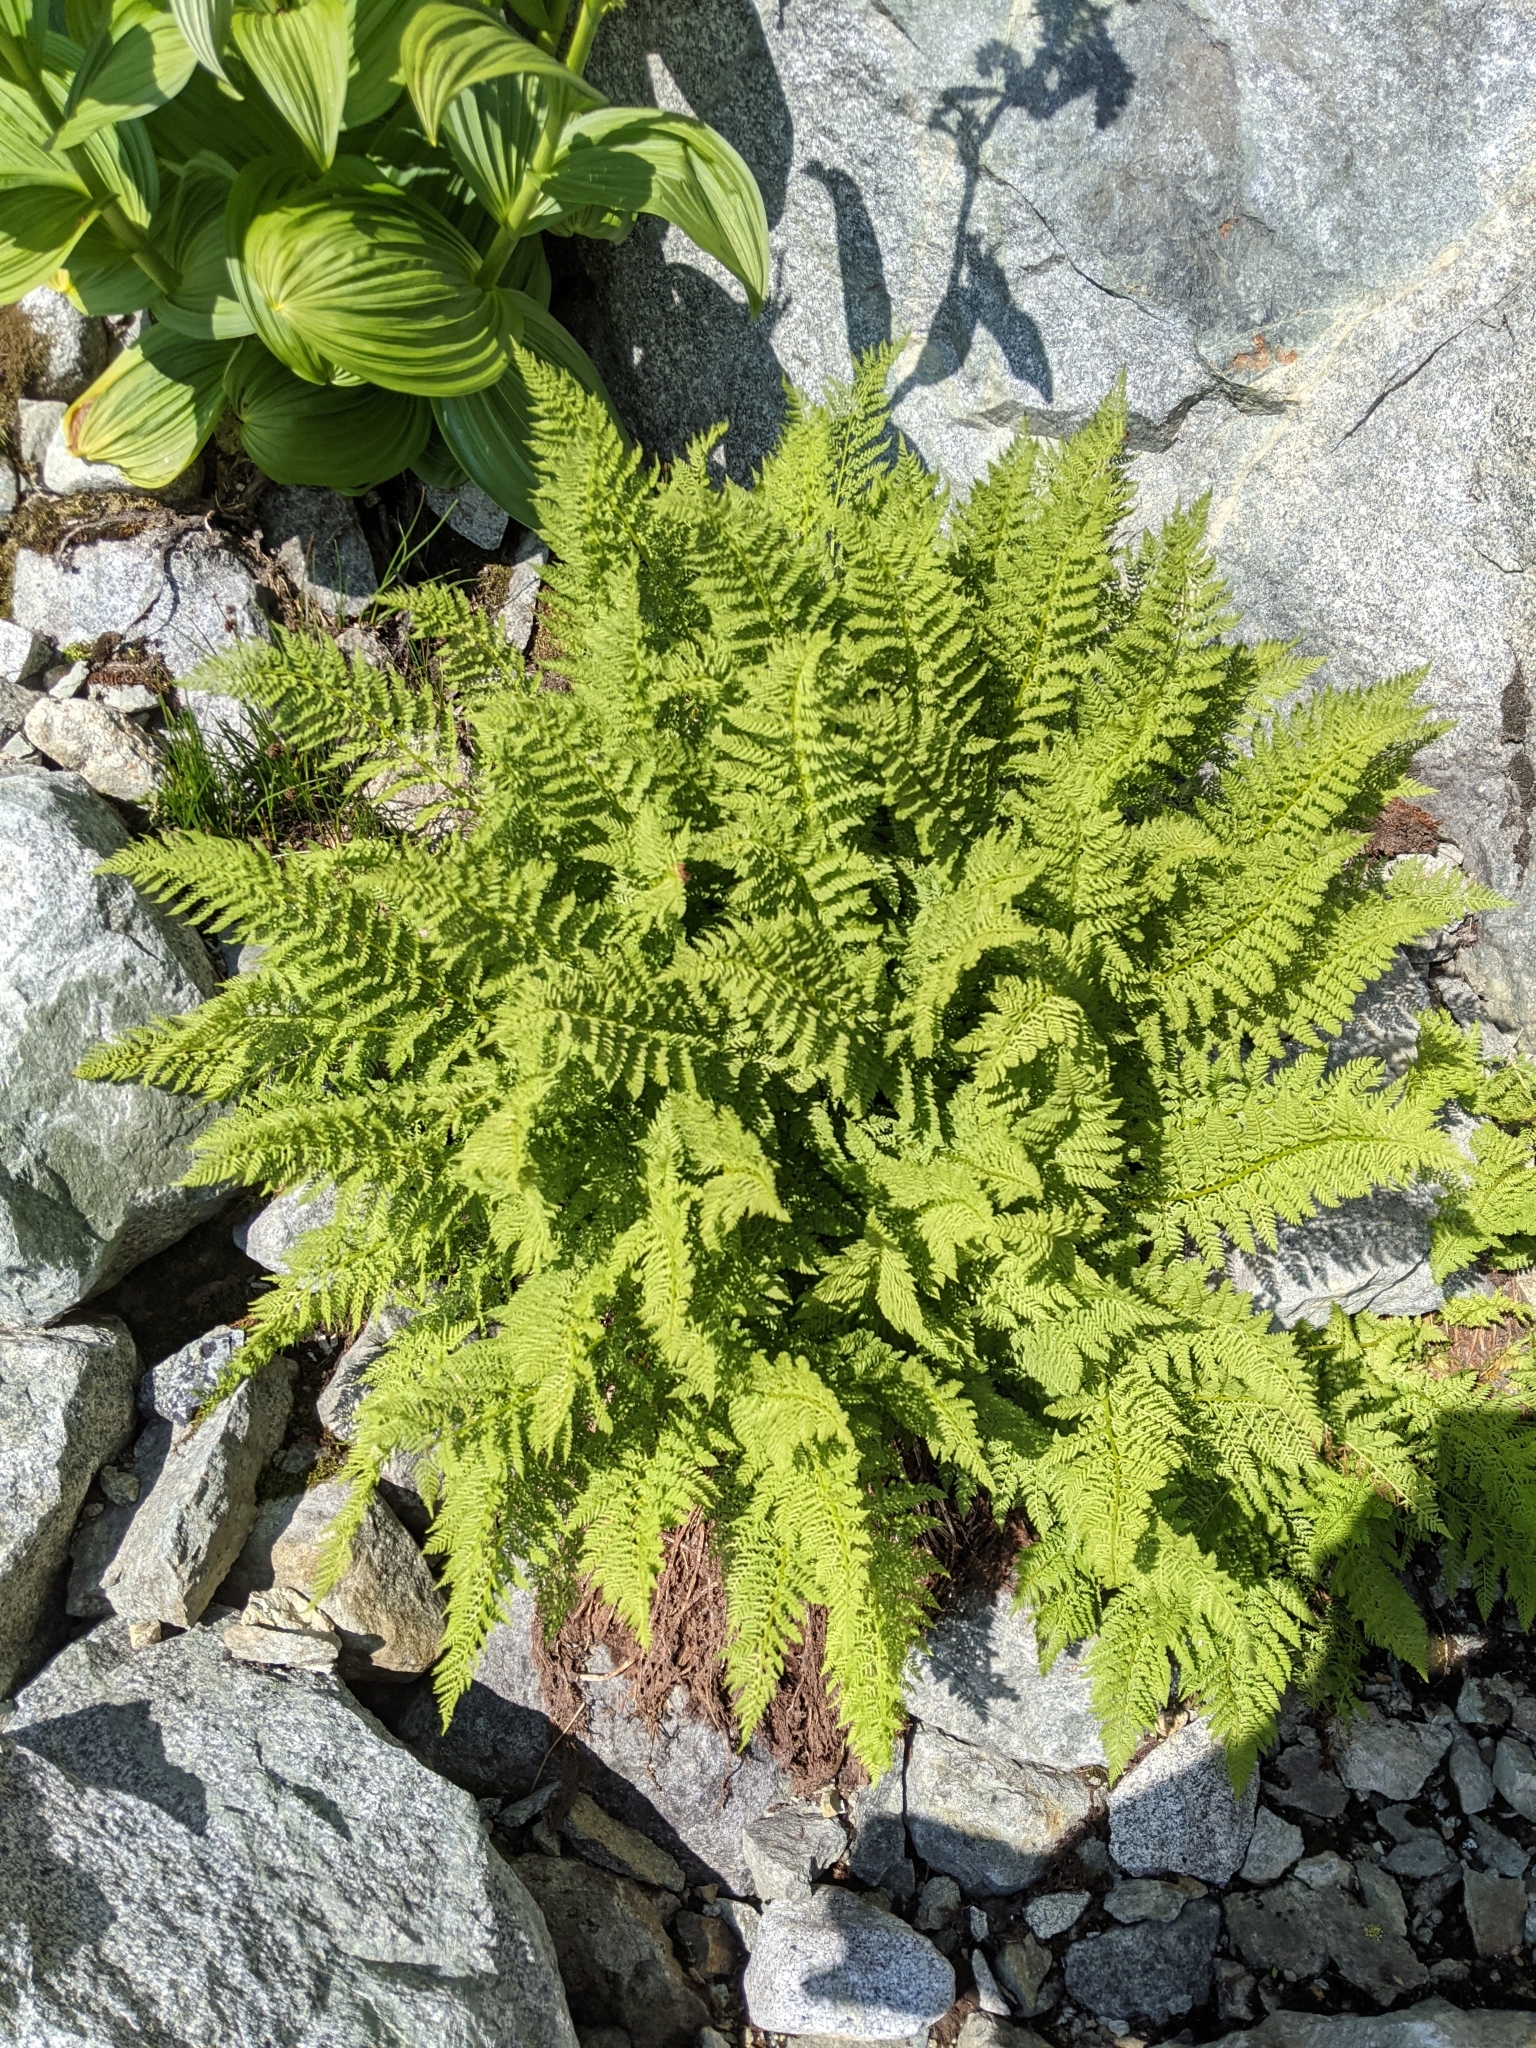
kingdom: Plantae
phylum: Tracheophyta
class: Polypodiopsida
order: Polypodiales
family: Athyriaceae
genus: Athyrium
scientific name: Athyrium americanum
